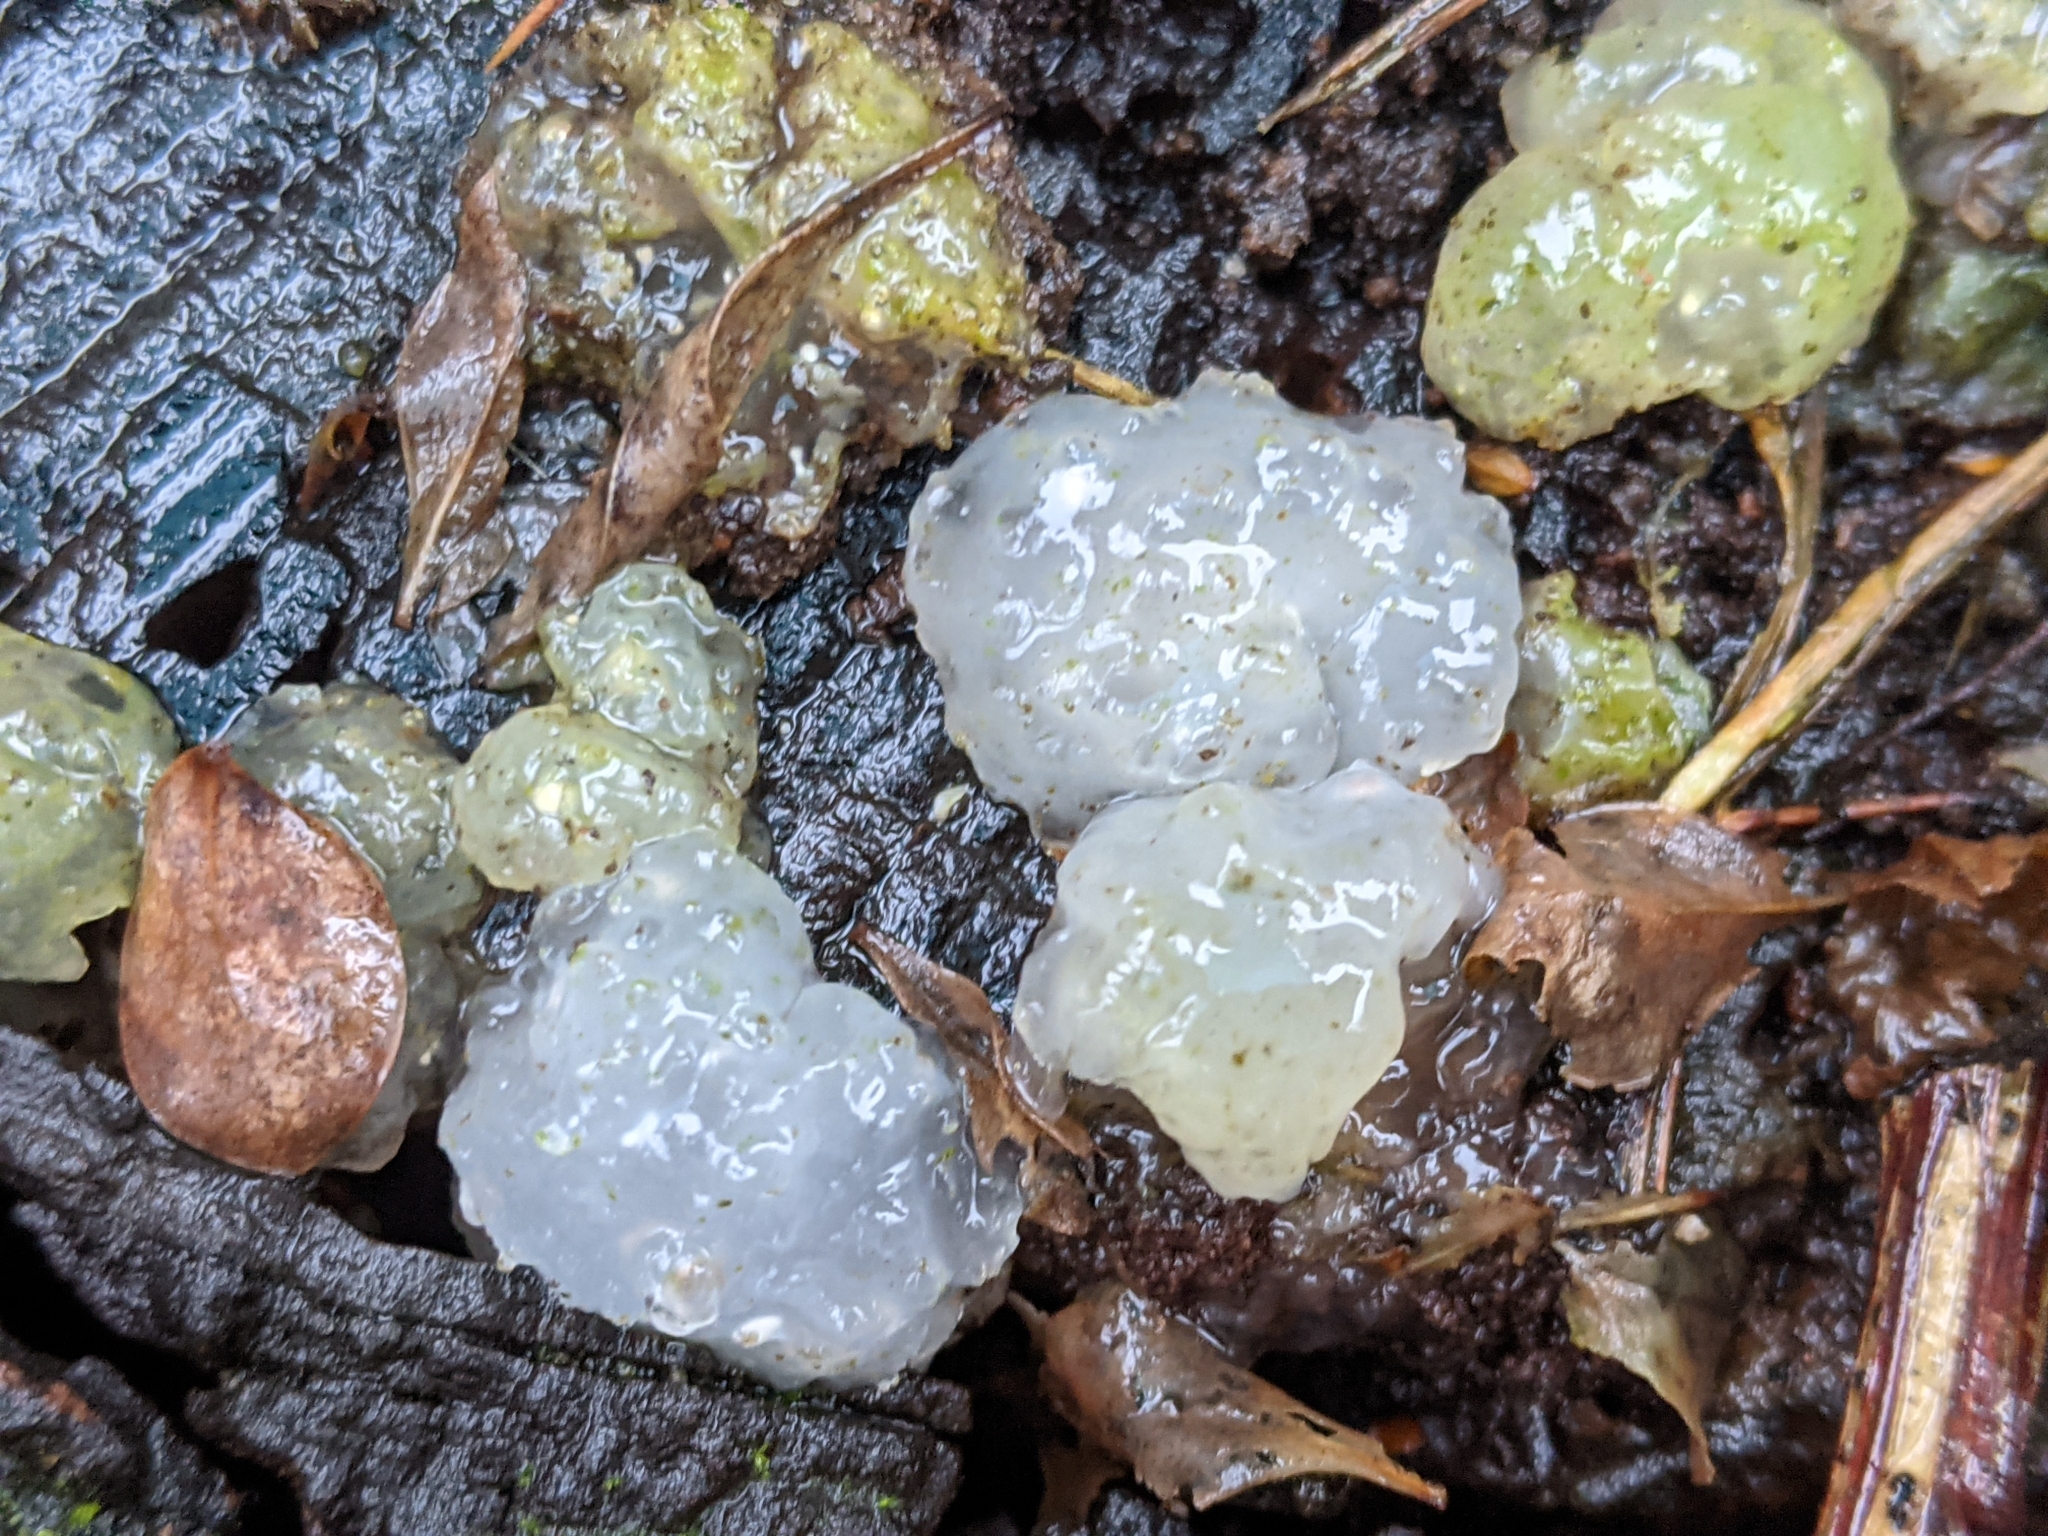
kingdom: Fungi
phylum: Basidiomycota
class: Agaricomycetes
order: Auriculariales
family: Hyaloriaceae
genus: Myxarium
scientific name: Myxarium nucleatum
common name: Crystal brain fungus
